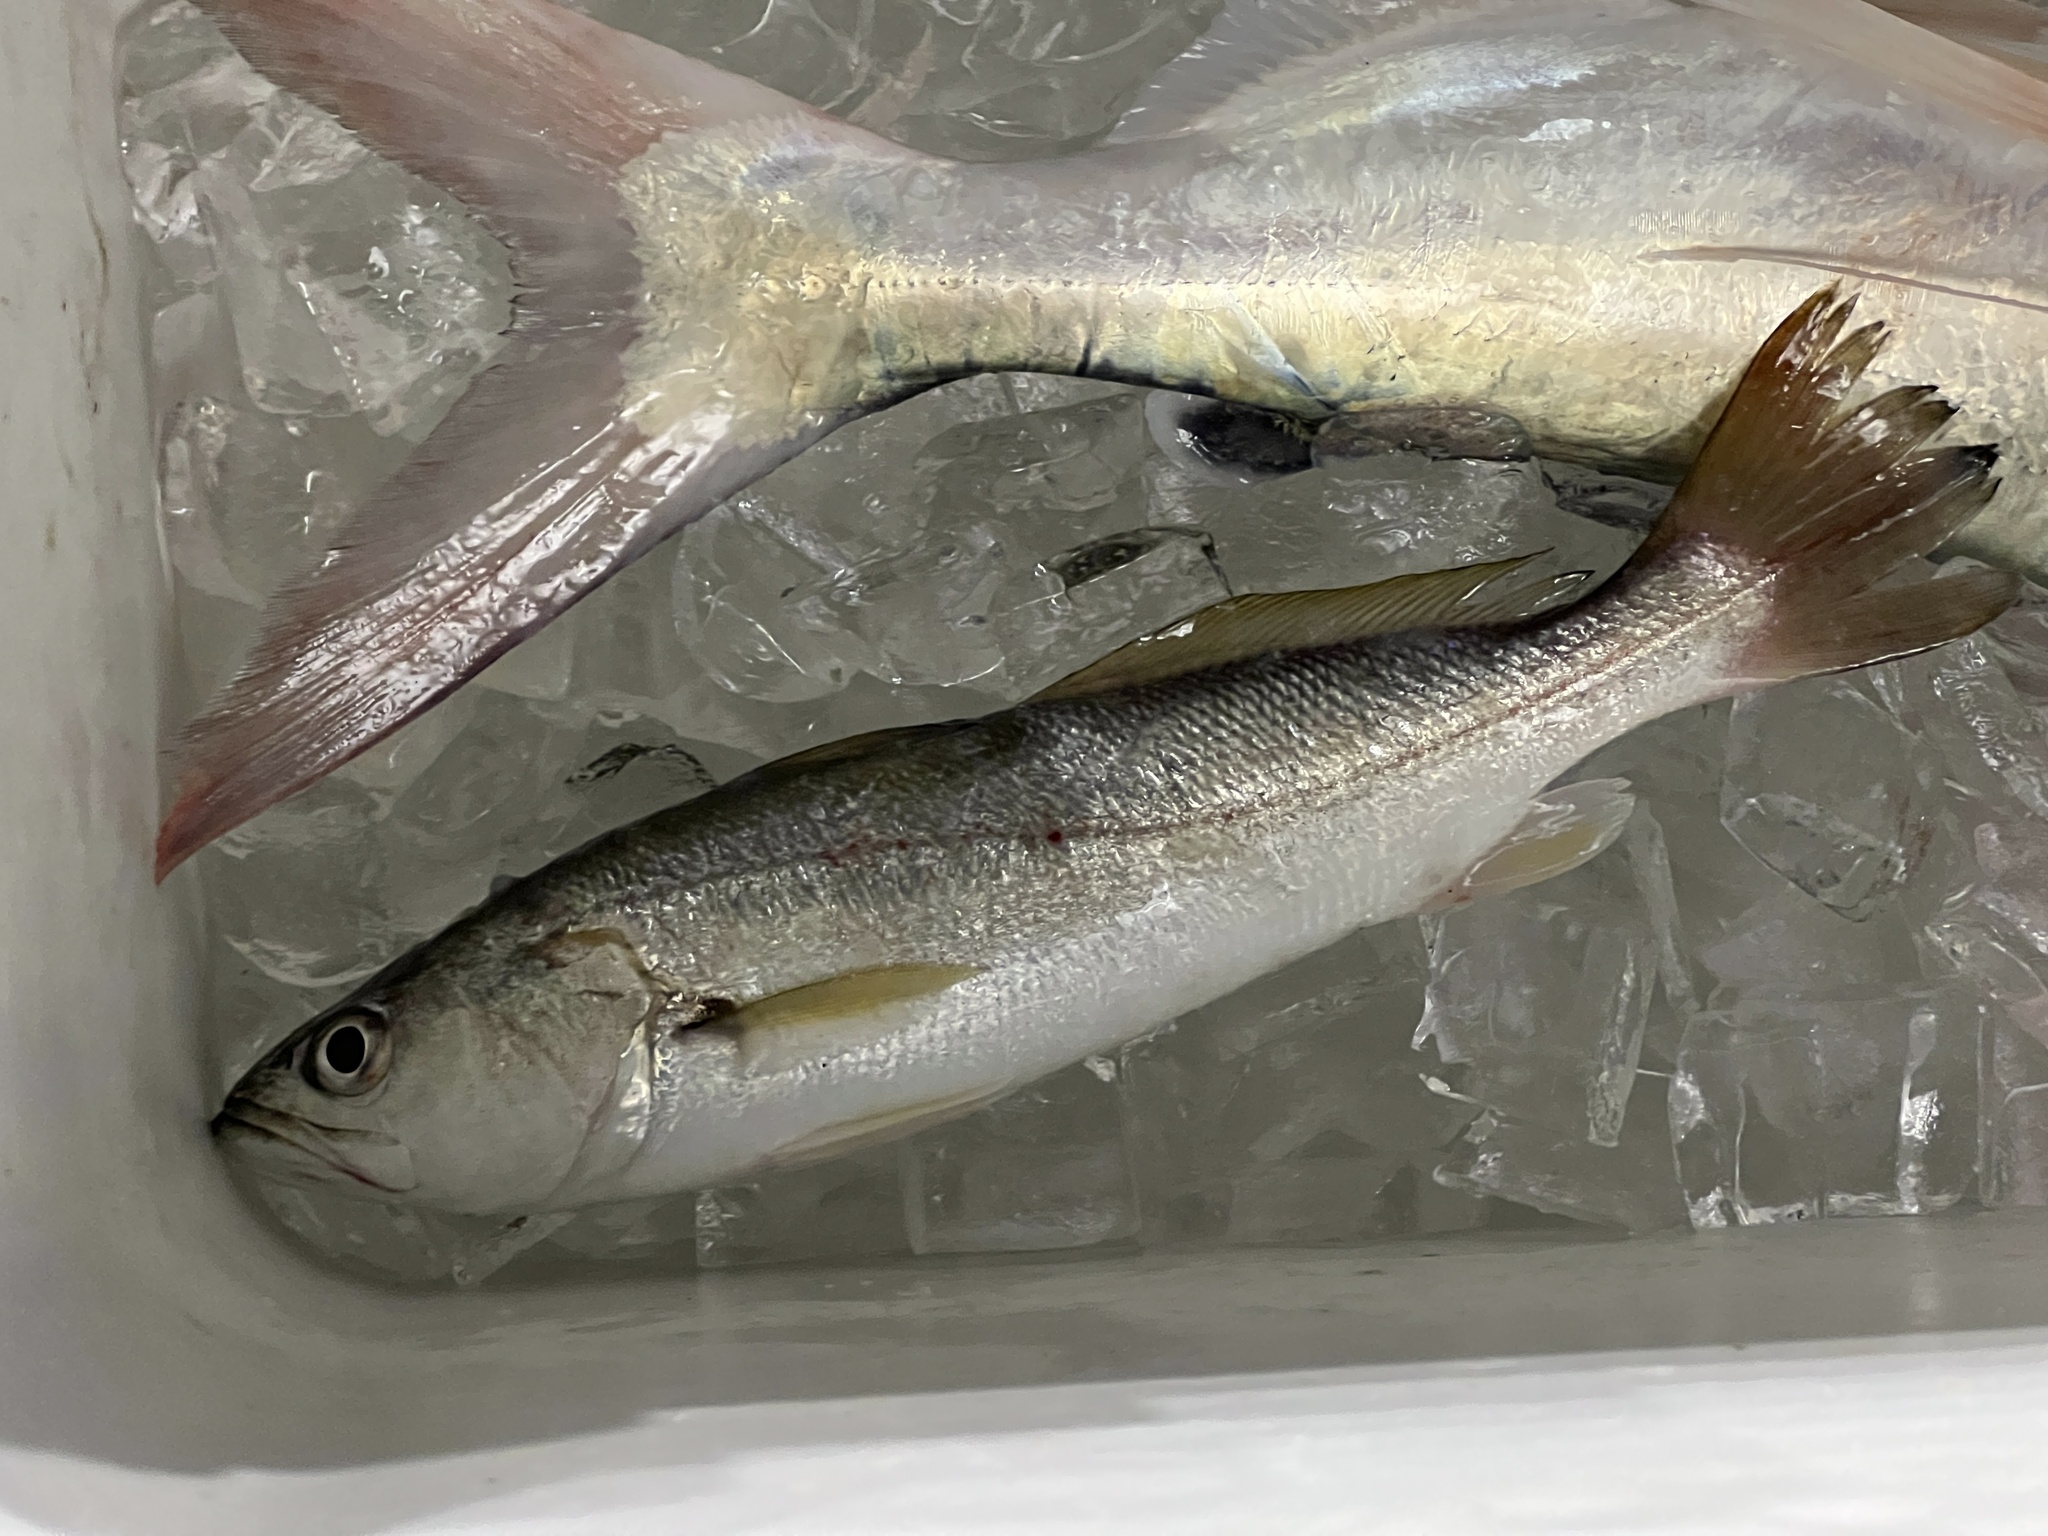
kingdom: Animalia
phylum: Chordata
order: Perciformes
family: Sciaenidae
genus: Cynoscion
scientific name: Cynoscion arenarius
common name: Sand seatrout
